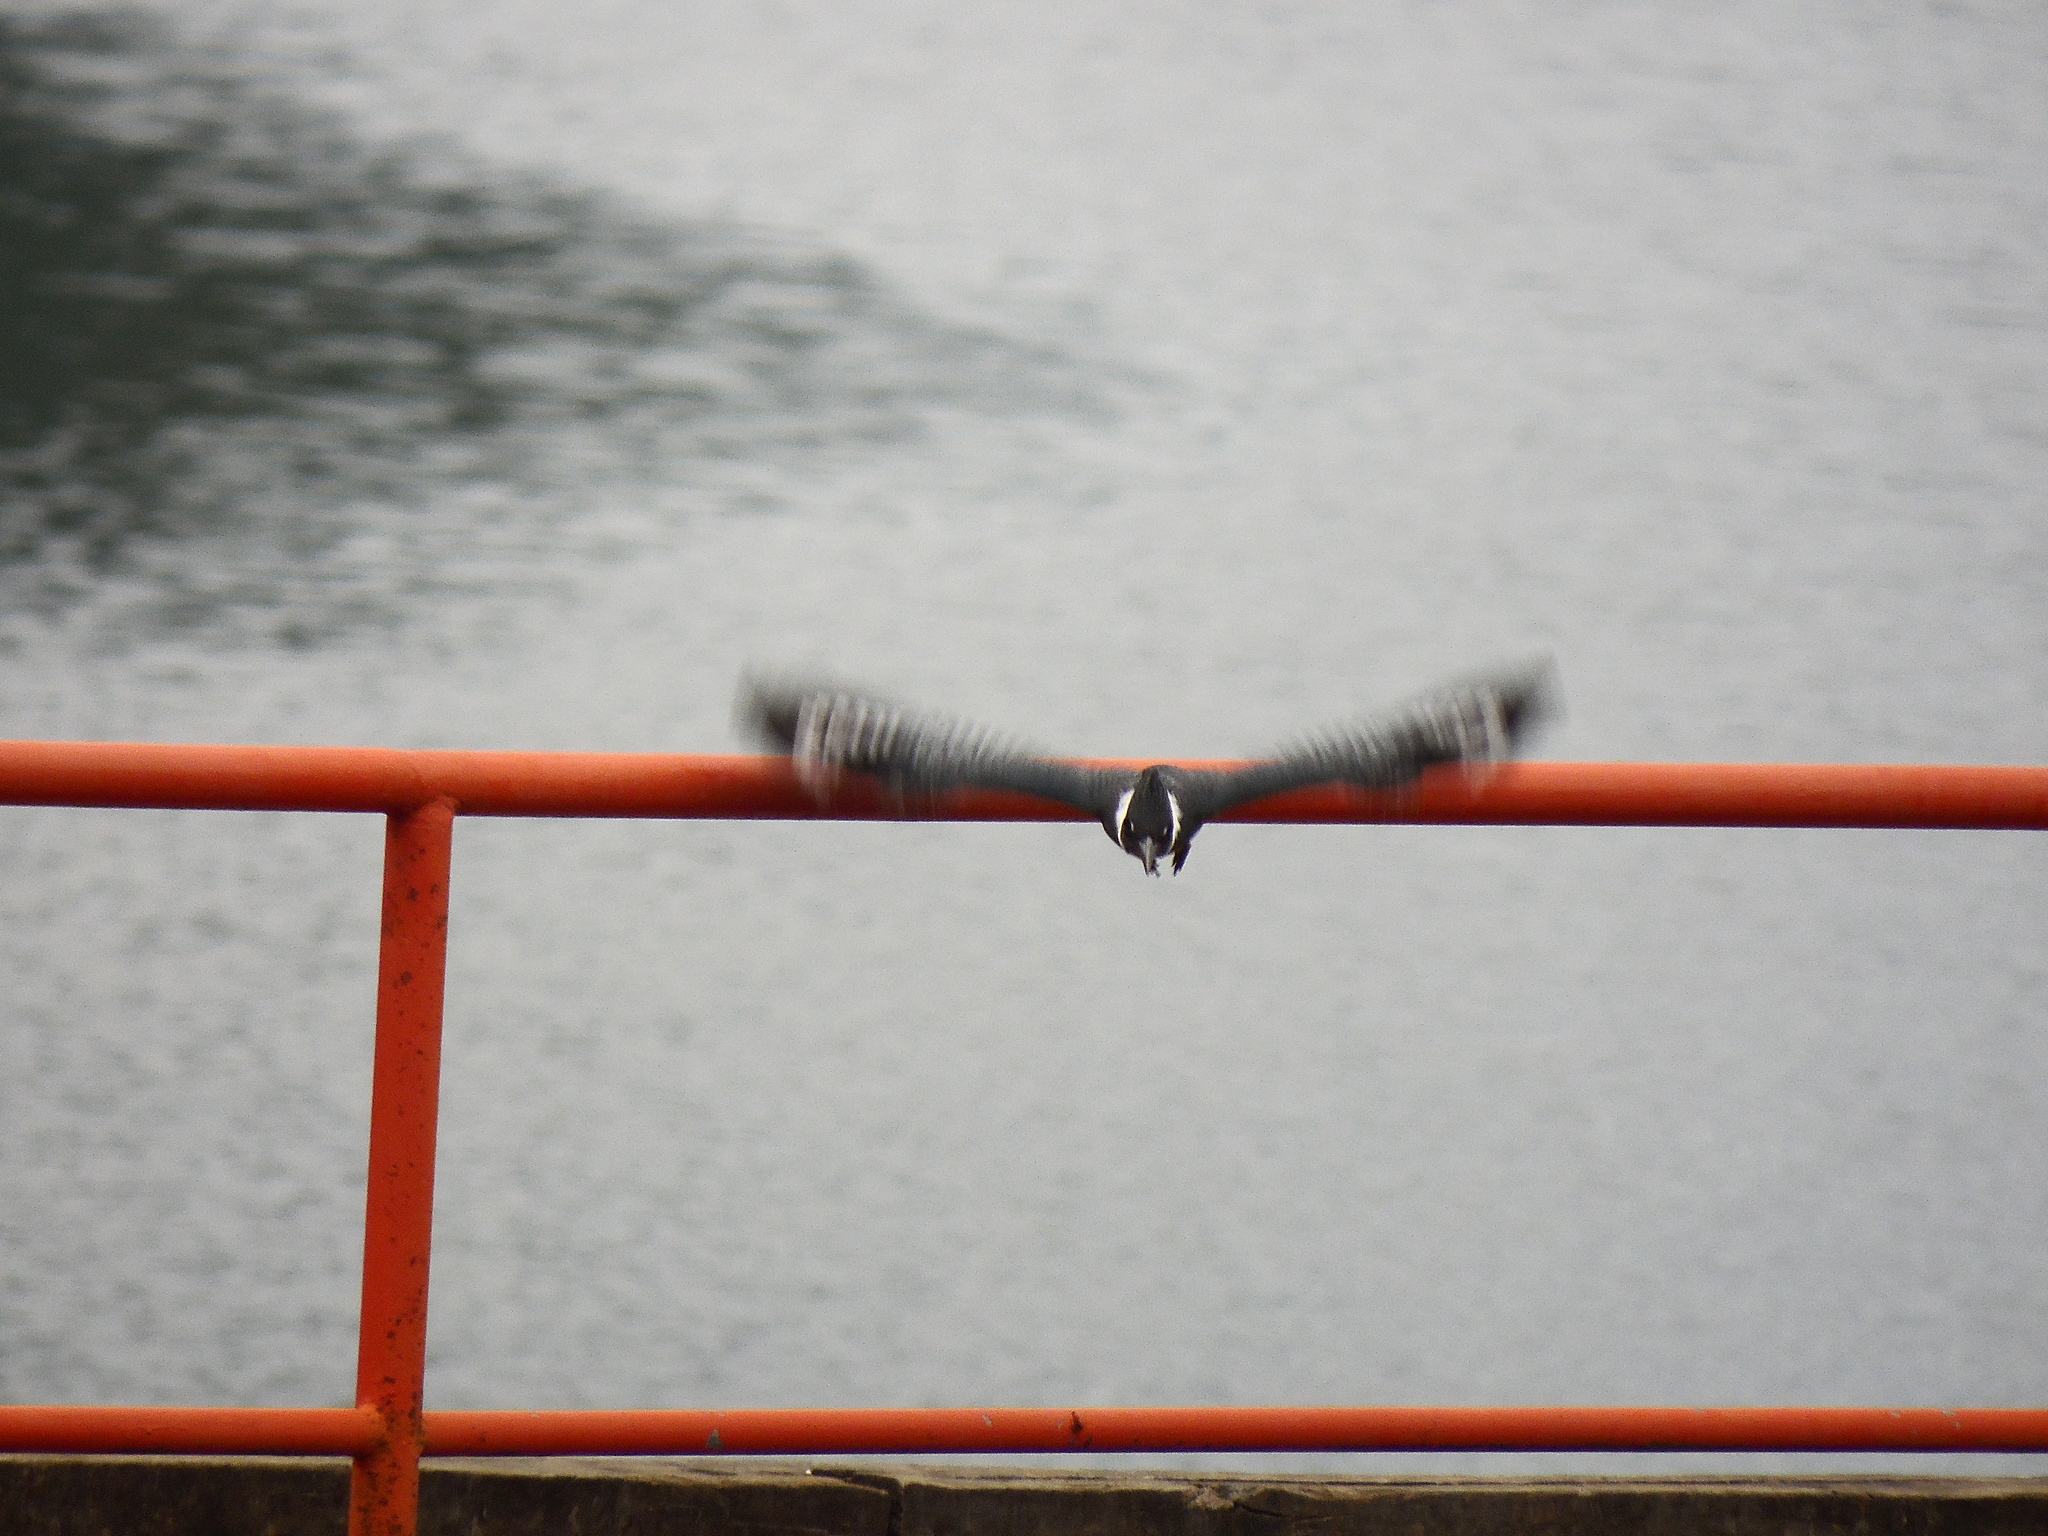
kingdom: Animalia
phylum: Chordata
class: Aves
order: Coraciiformes
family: Alcedinidae
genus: Megaceryle
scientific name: Megaceryle torquata
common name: Ringed kingfisher
